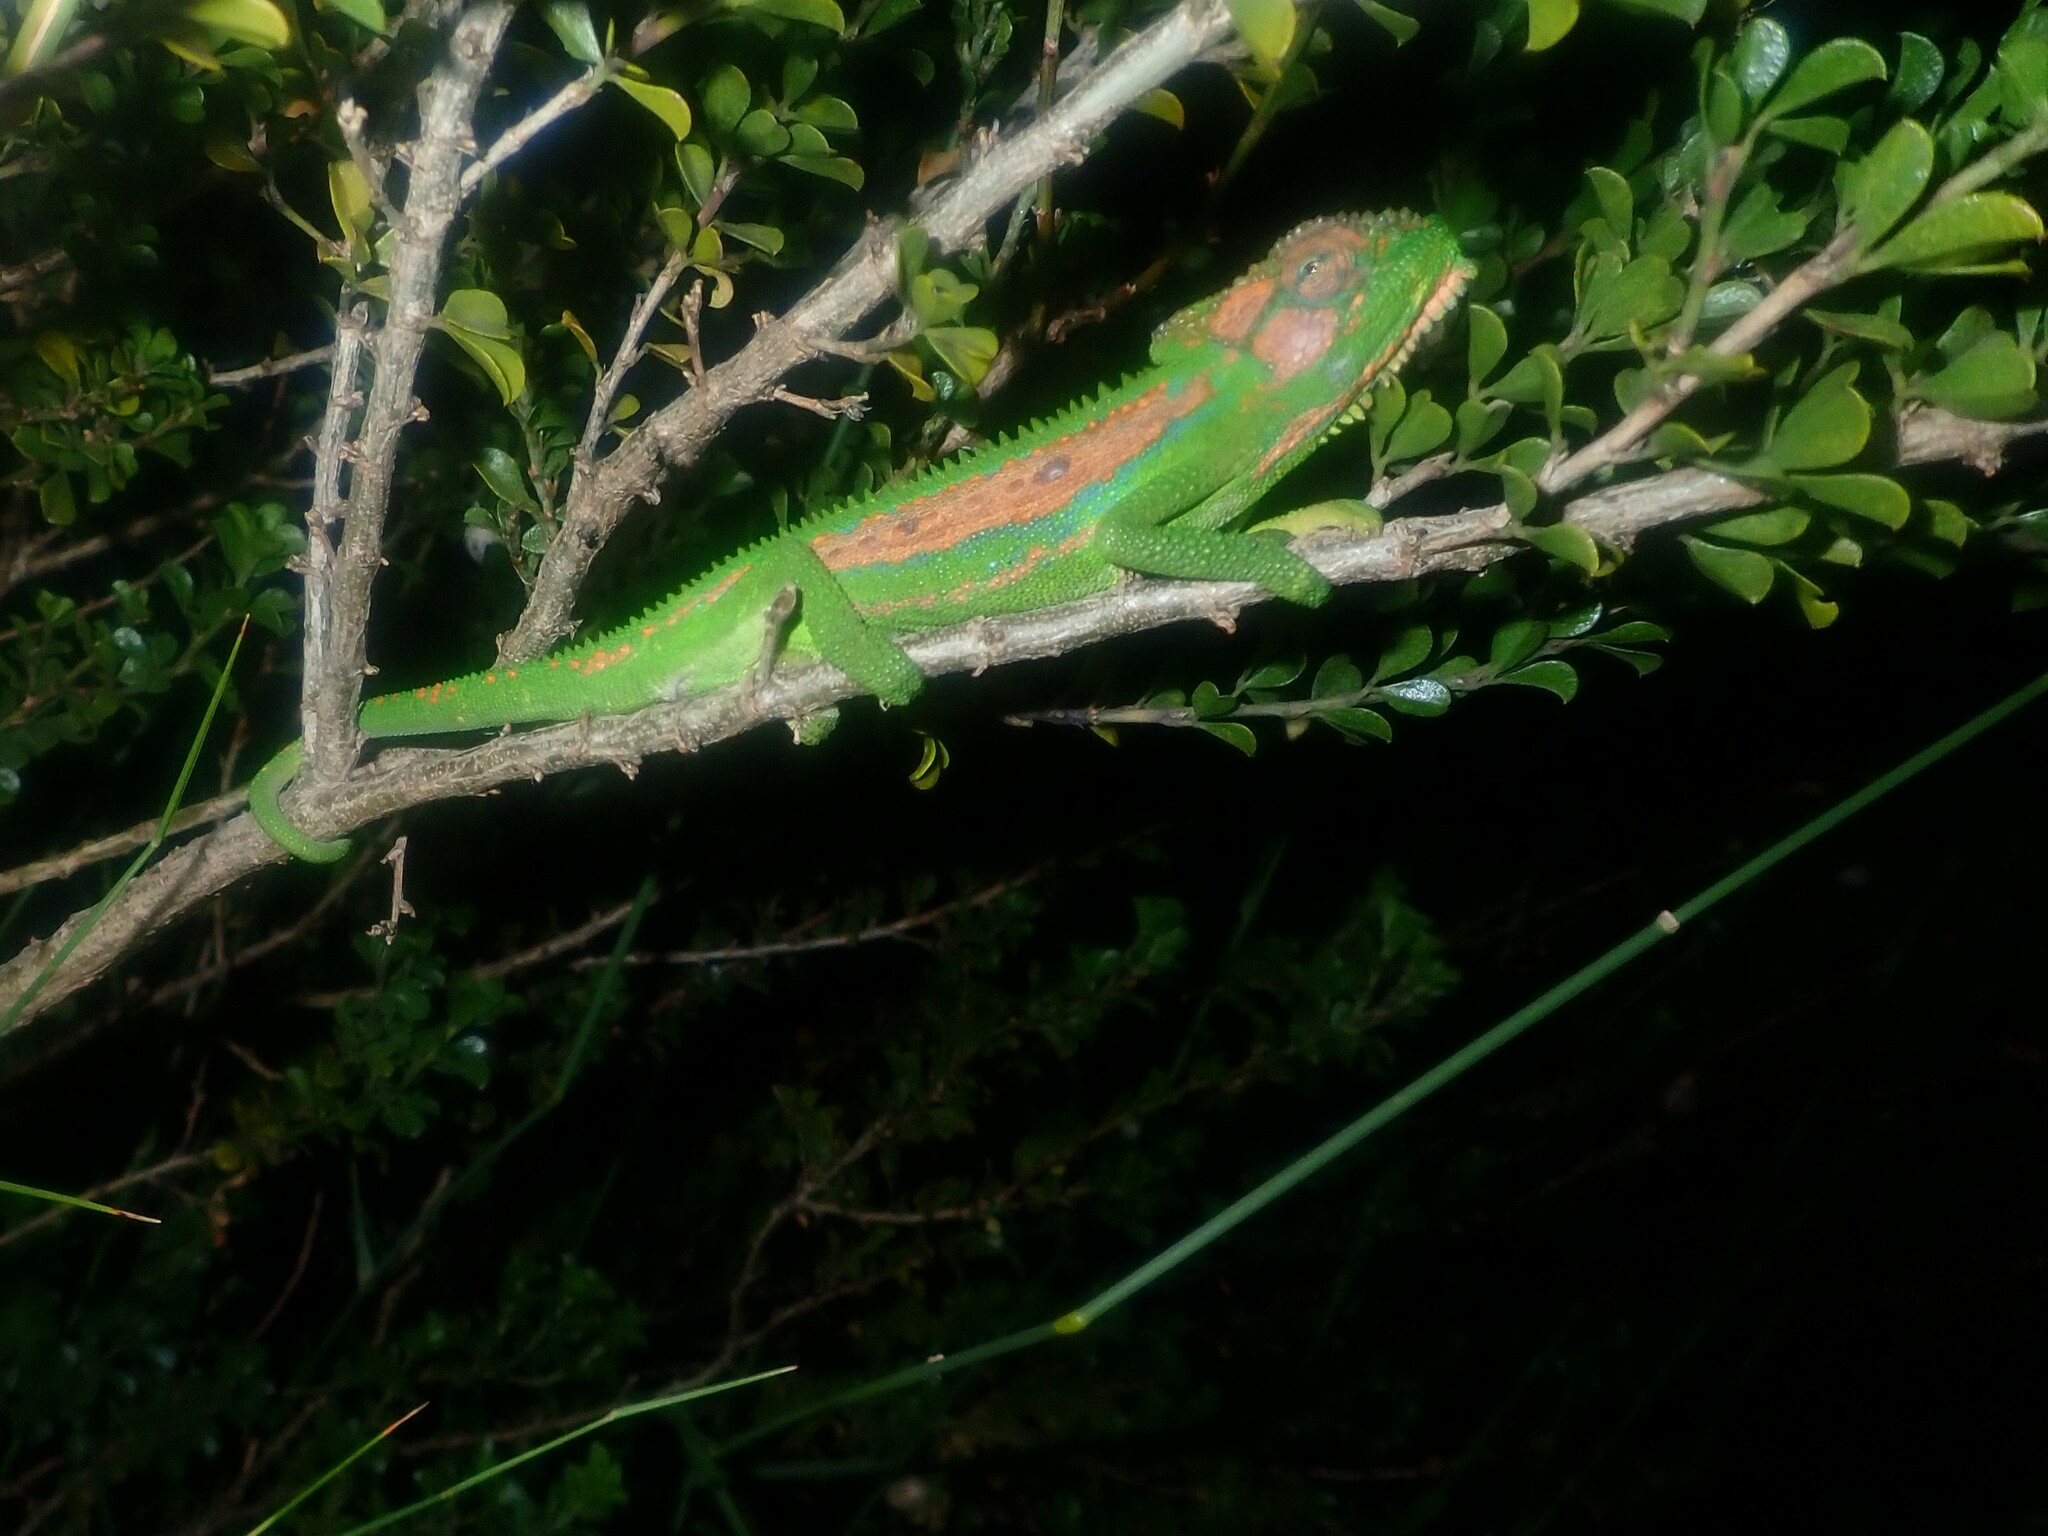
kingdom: Animalia
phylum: Chordata
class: Squamata
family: Chamaeleonidae
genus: Bradypodion
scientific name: Bradypodion pumilum
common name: Cape dwarf chameleon
